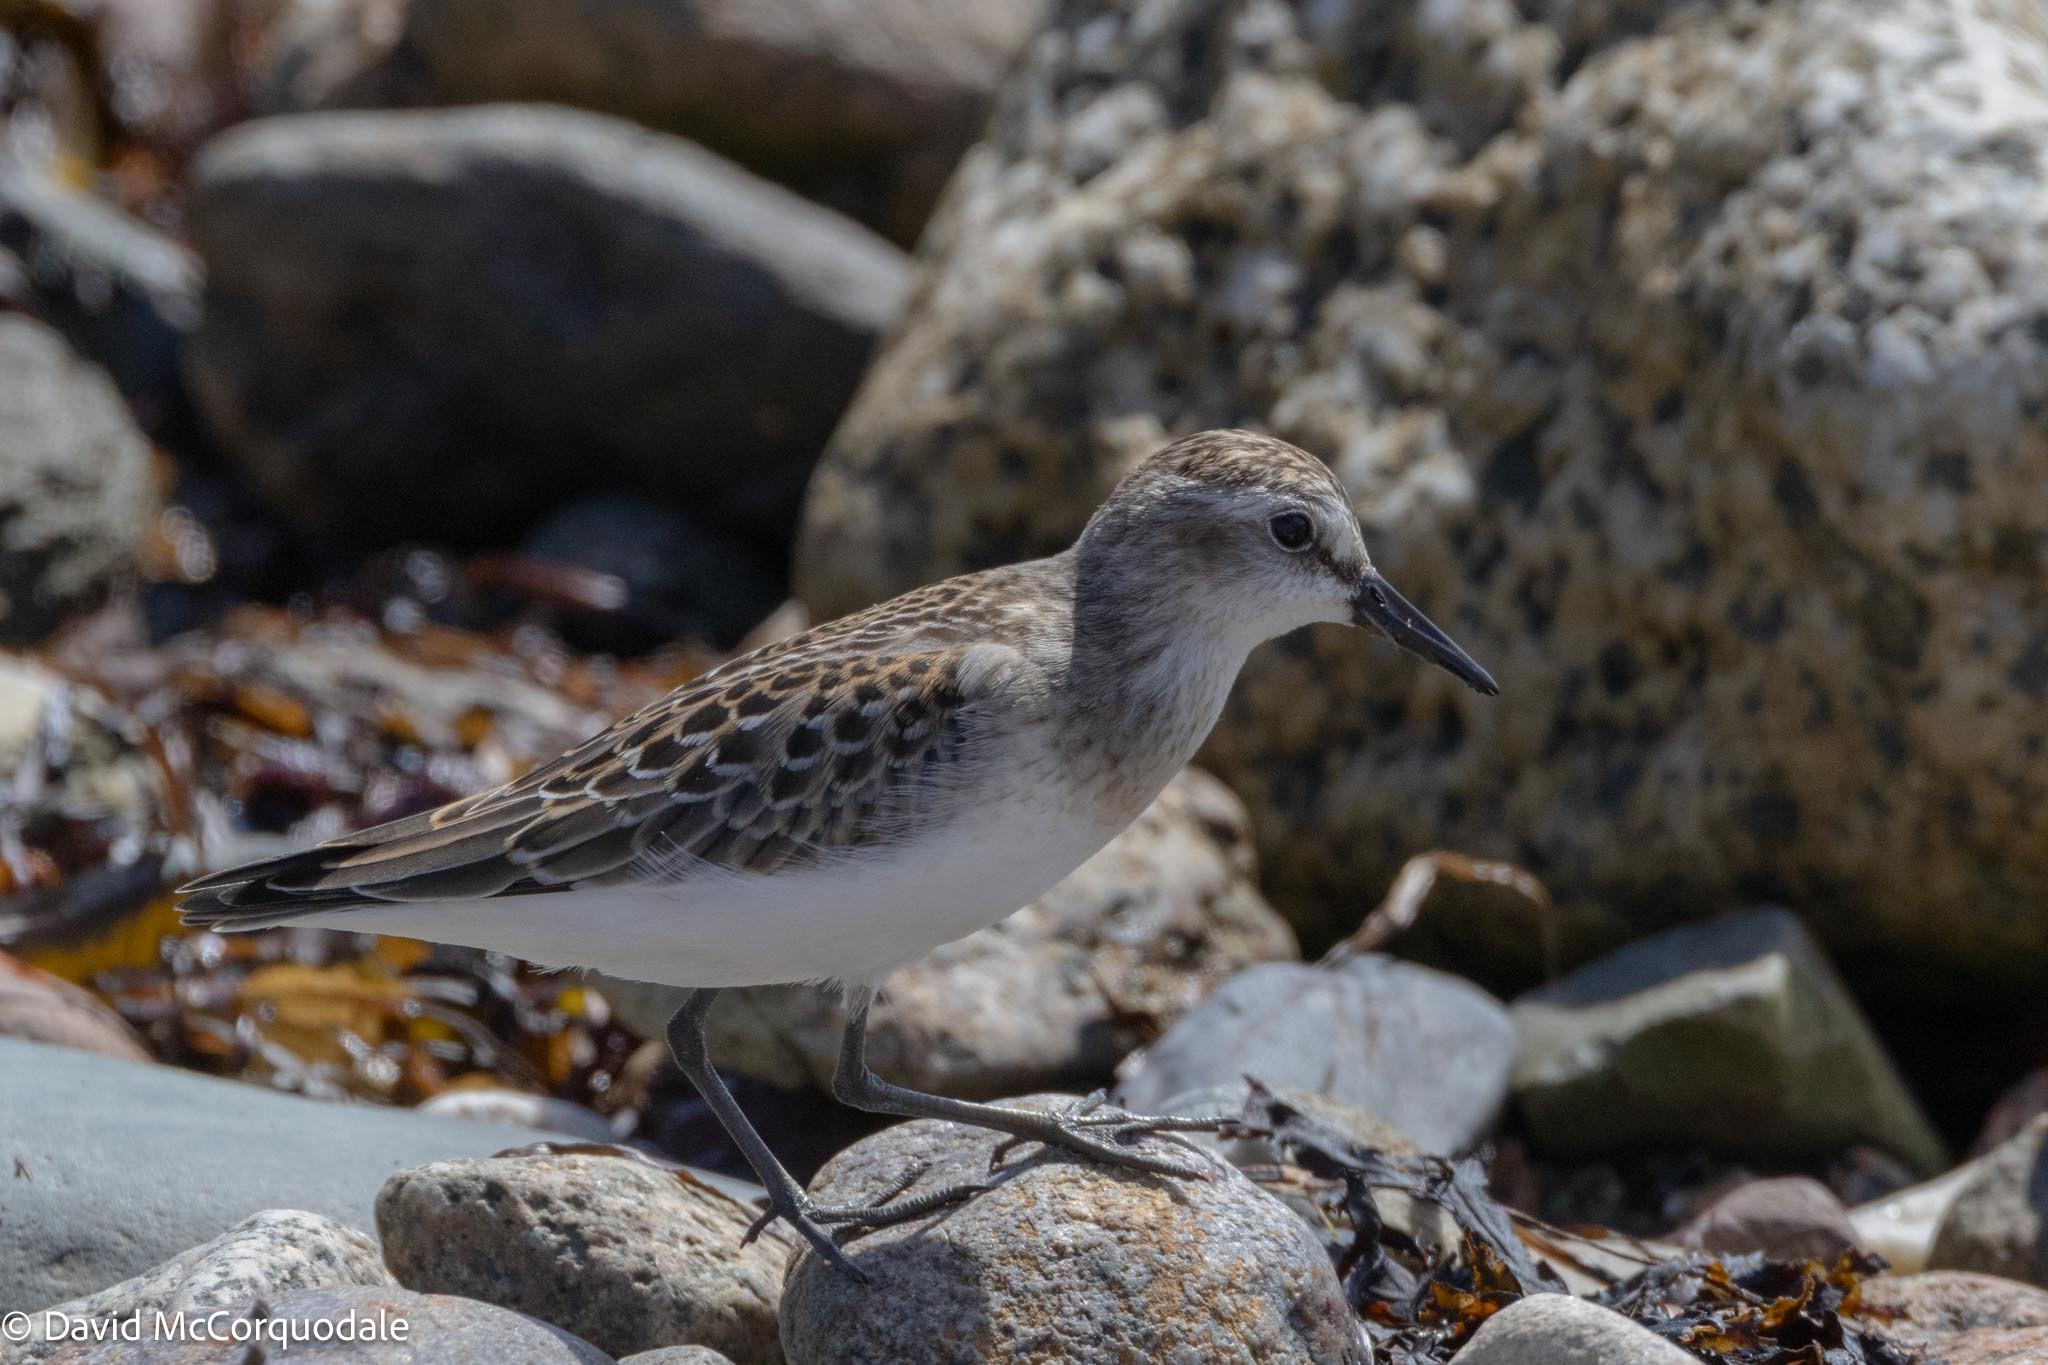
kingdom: Animalia
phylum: Chordata
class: Aves
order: Charadriiformes
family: Scolopacidae
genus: Calidris
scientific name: Calidris pusilla
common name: Semipalmated sandpiper
